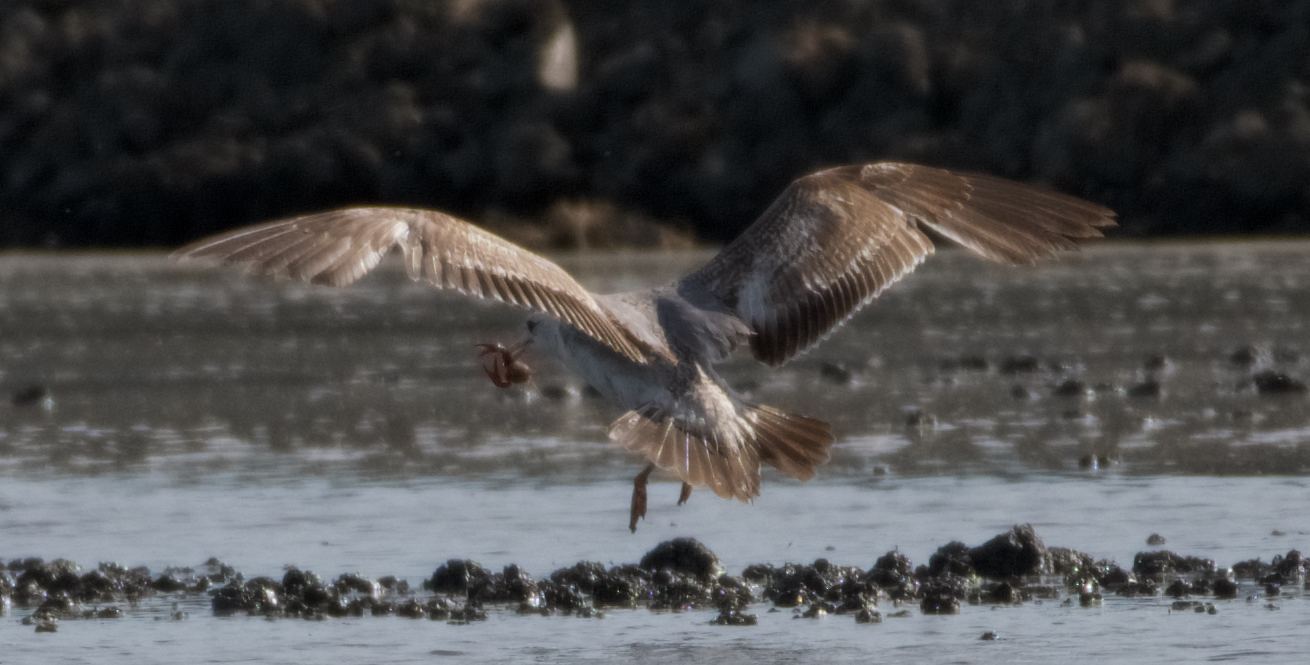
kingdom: Animalia
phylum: Chordata
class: Aves
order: Charadriiformes
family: Laridae
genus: Larus
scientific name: Larus californicus
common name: California gull
